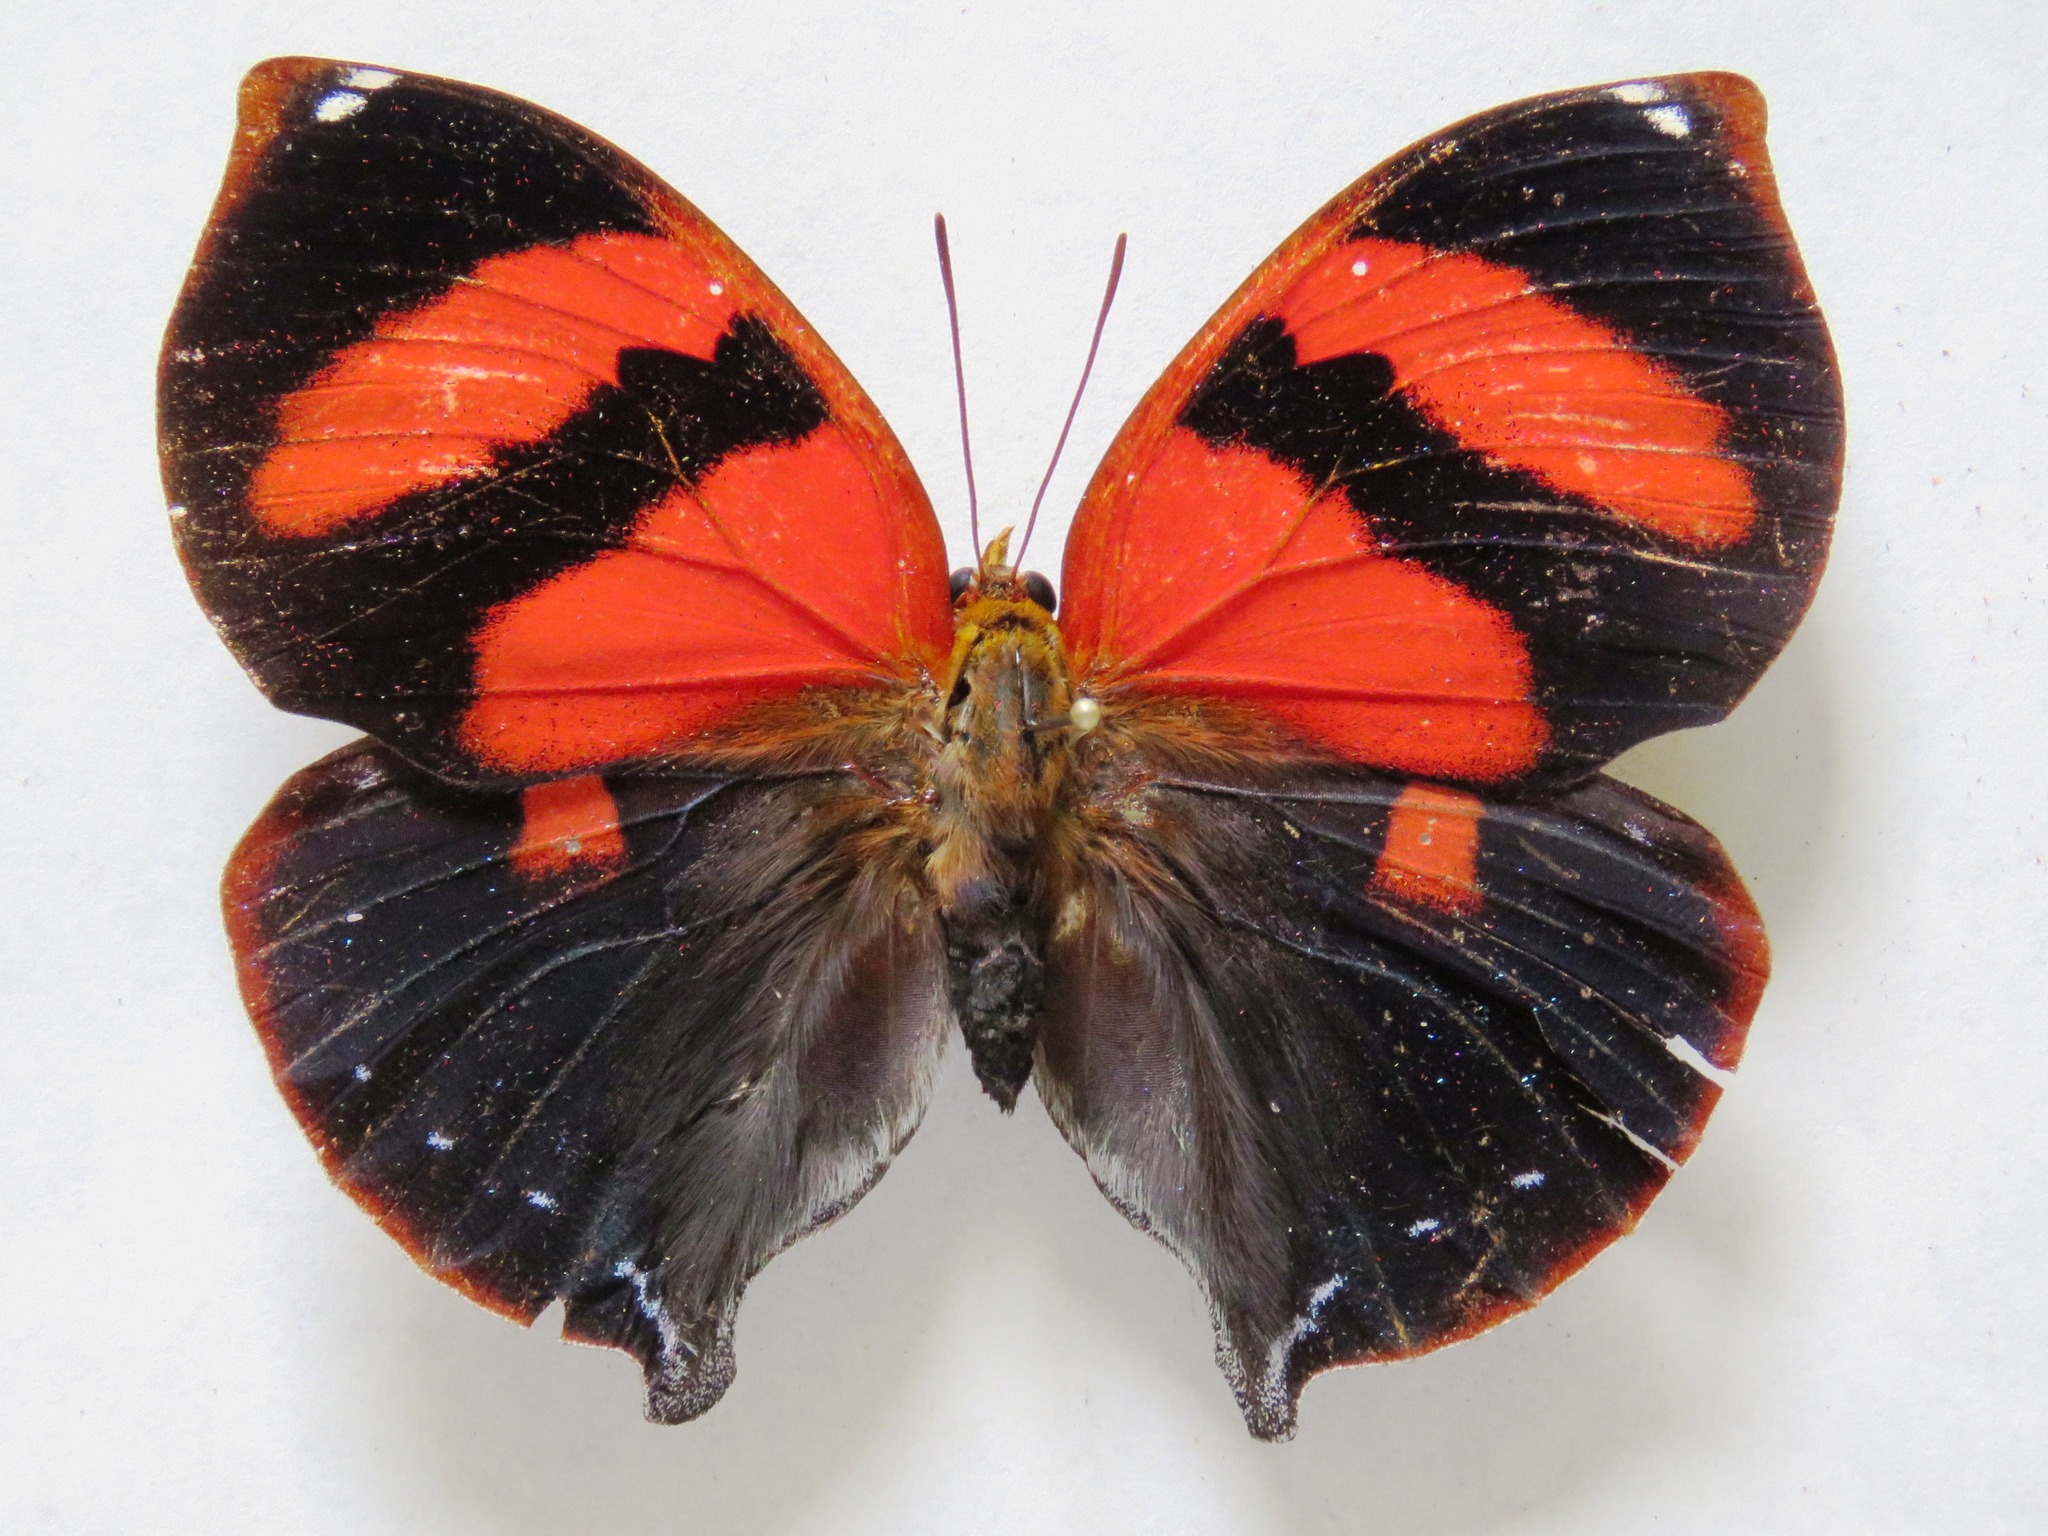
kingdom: Animalia
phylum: Arthropoda
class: Insecta
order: Lepidoptera
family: Nymphalidae
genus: Siderone
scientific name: Siderone galanthis
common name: Red-striped leafwing
